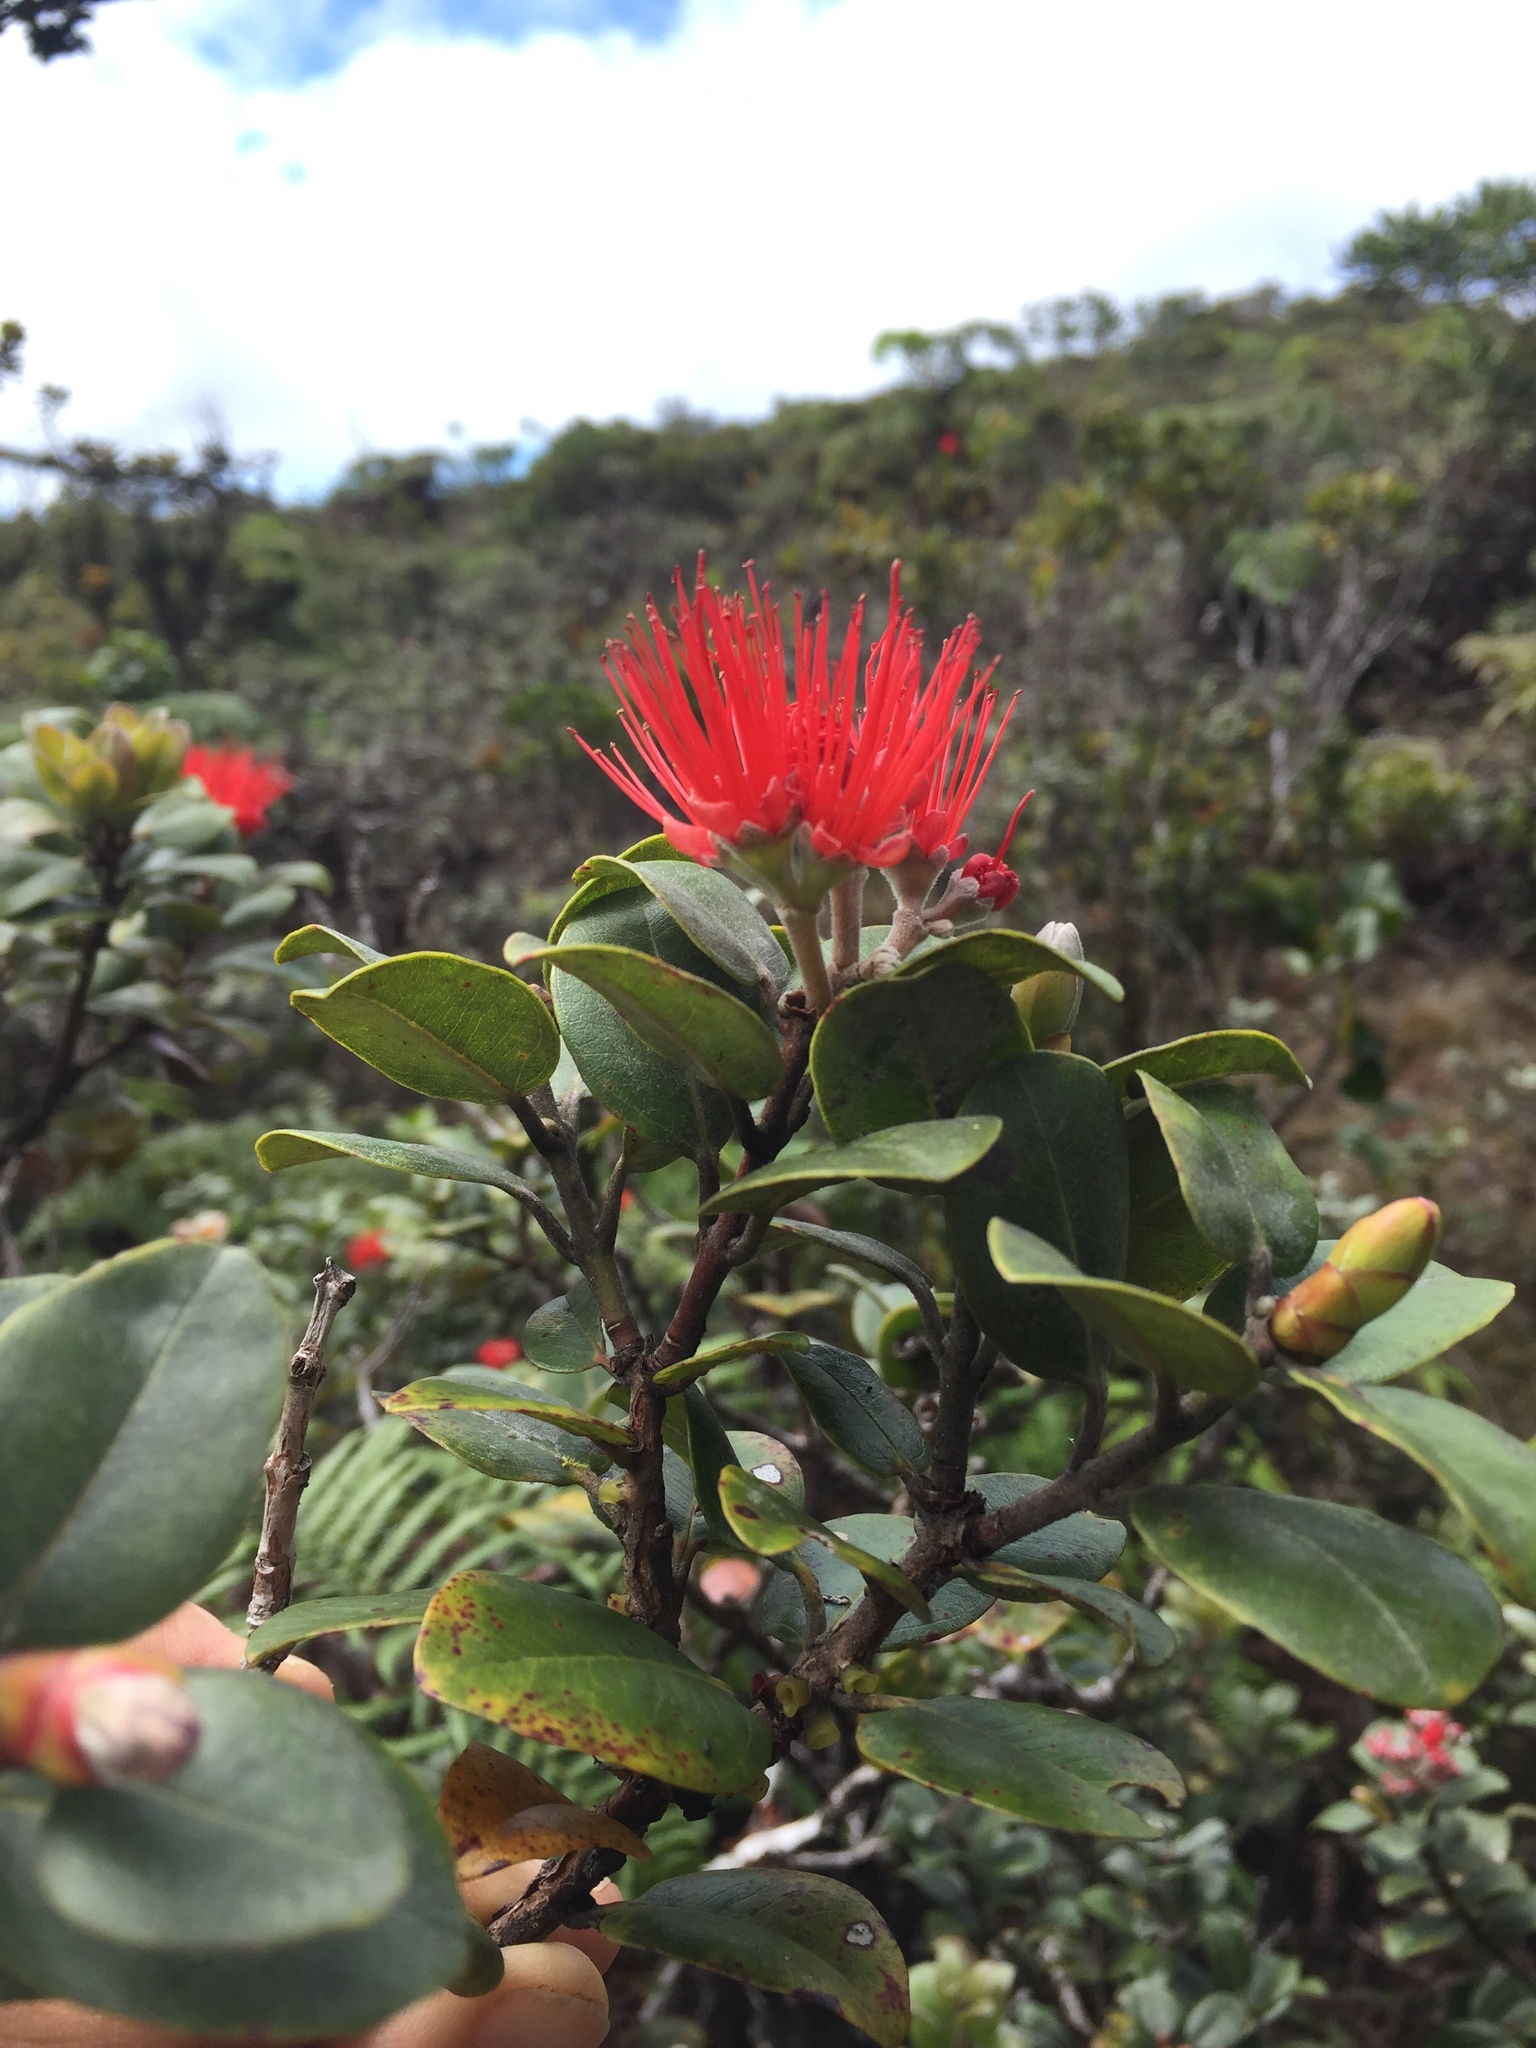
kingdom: Plantae
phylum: Tracheophyta
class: Magnoliopsida
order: Myrtales
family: Myrtaceae
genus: Metrosideros
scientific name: Metrosideros polymorpha
